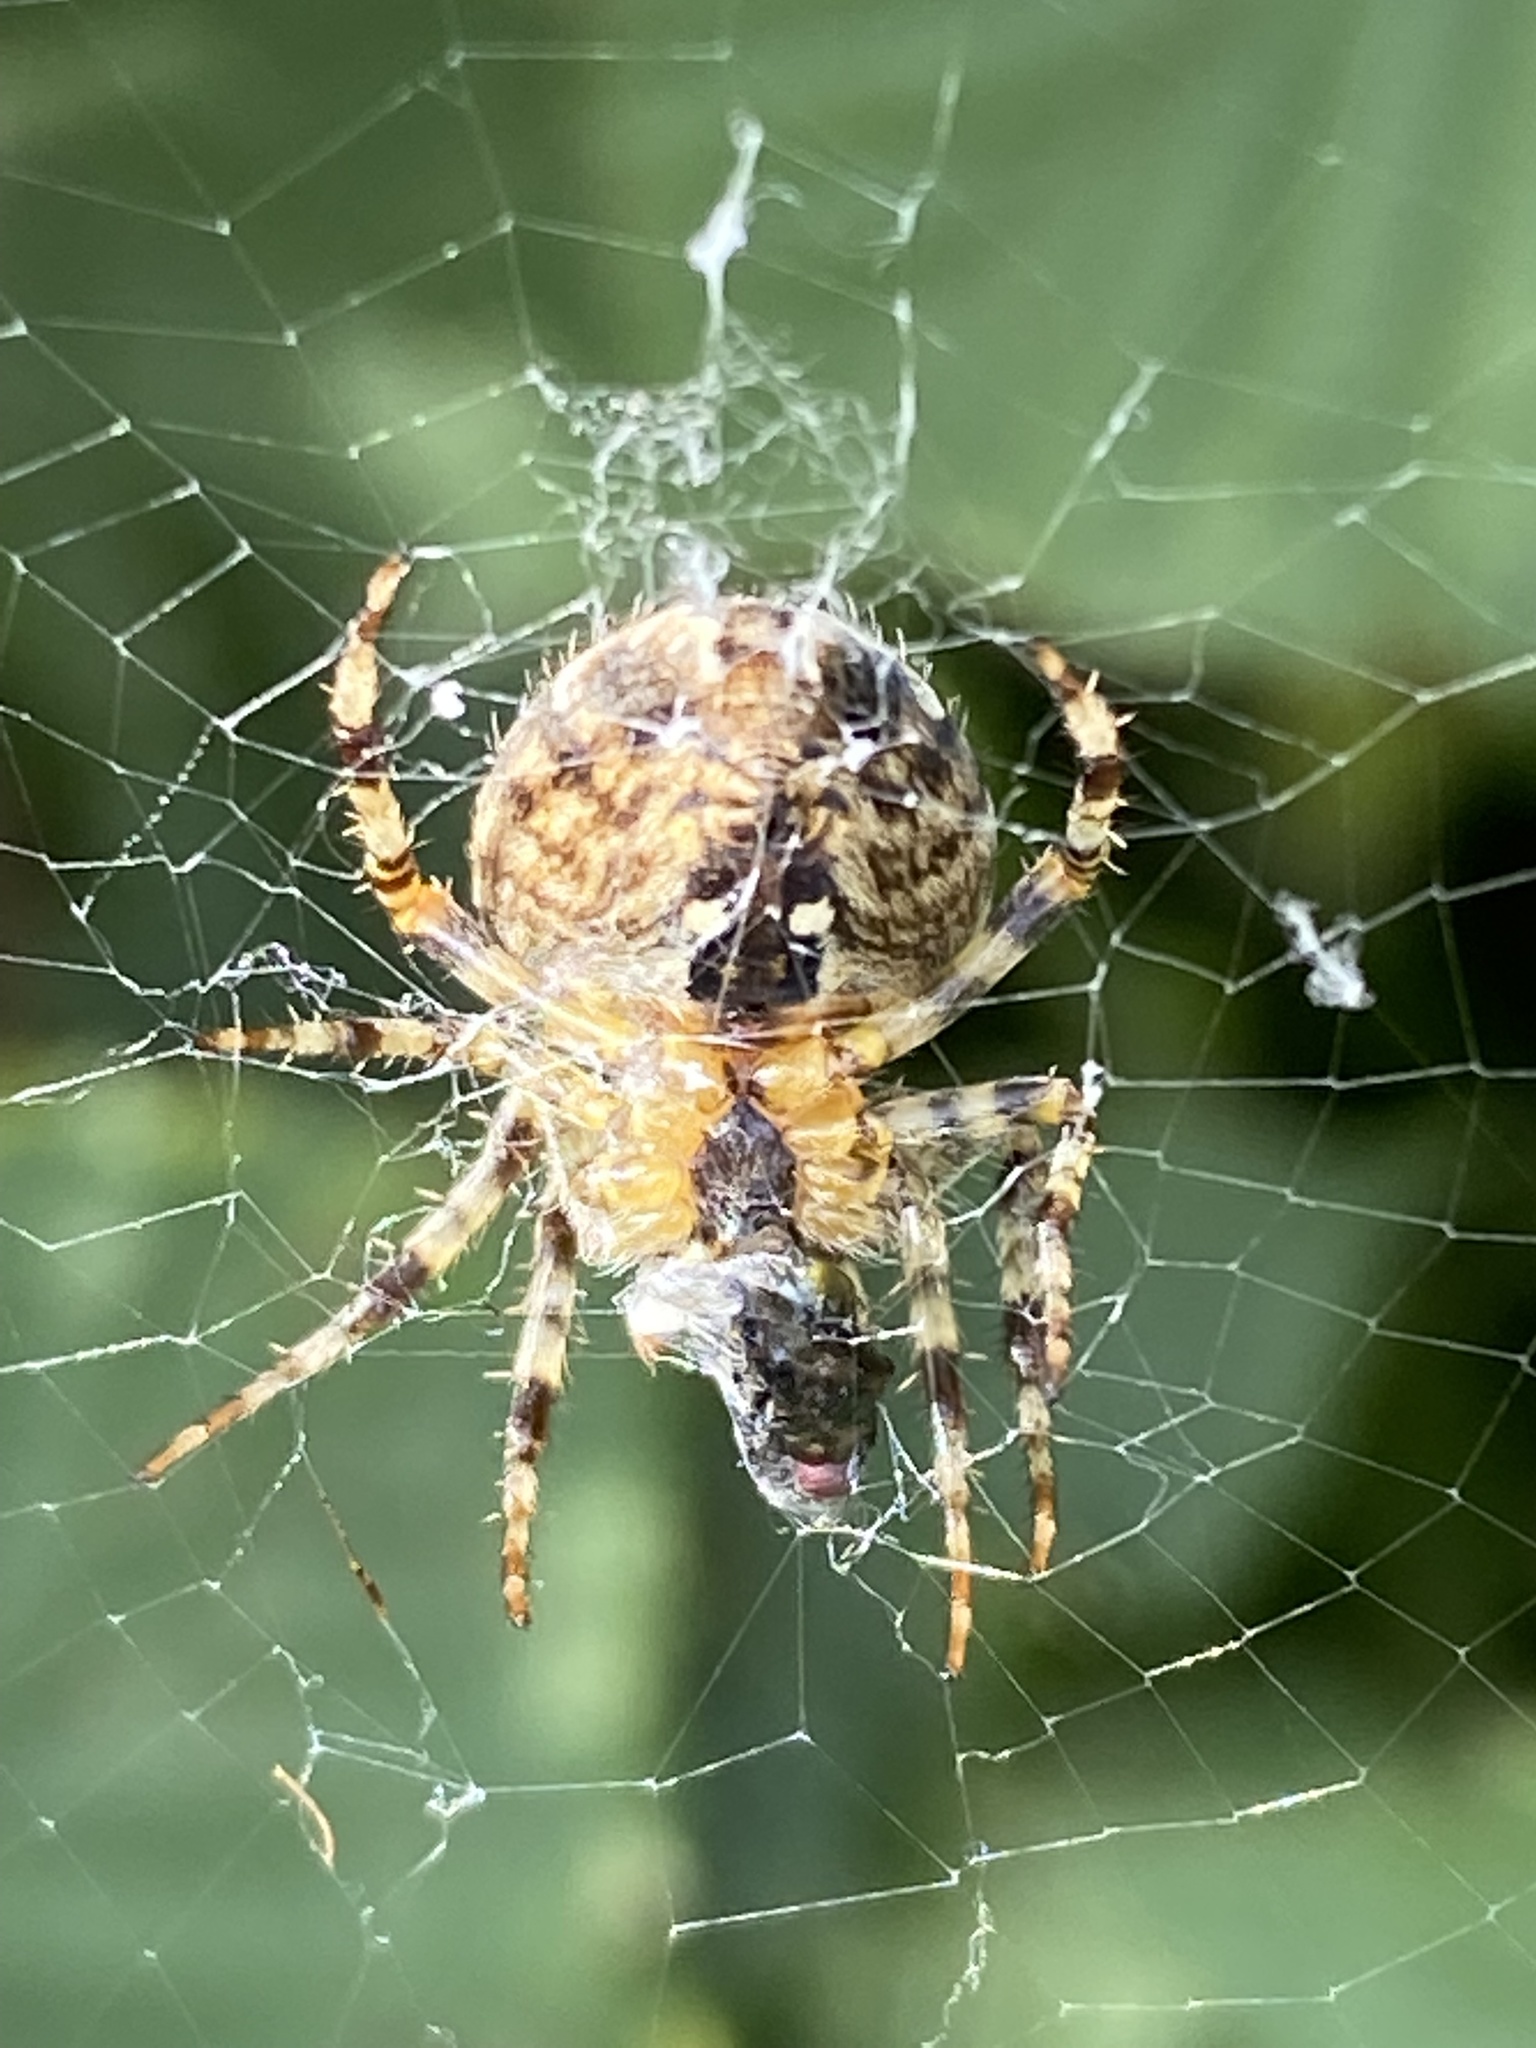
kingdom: Animalia
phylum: Arthropoda
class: Arachnida
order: Araneae
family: Araneidae
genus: Araneus
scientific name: Araneus diadematus
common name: Cross orbweaver
